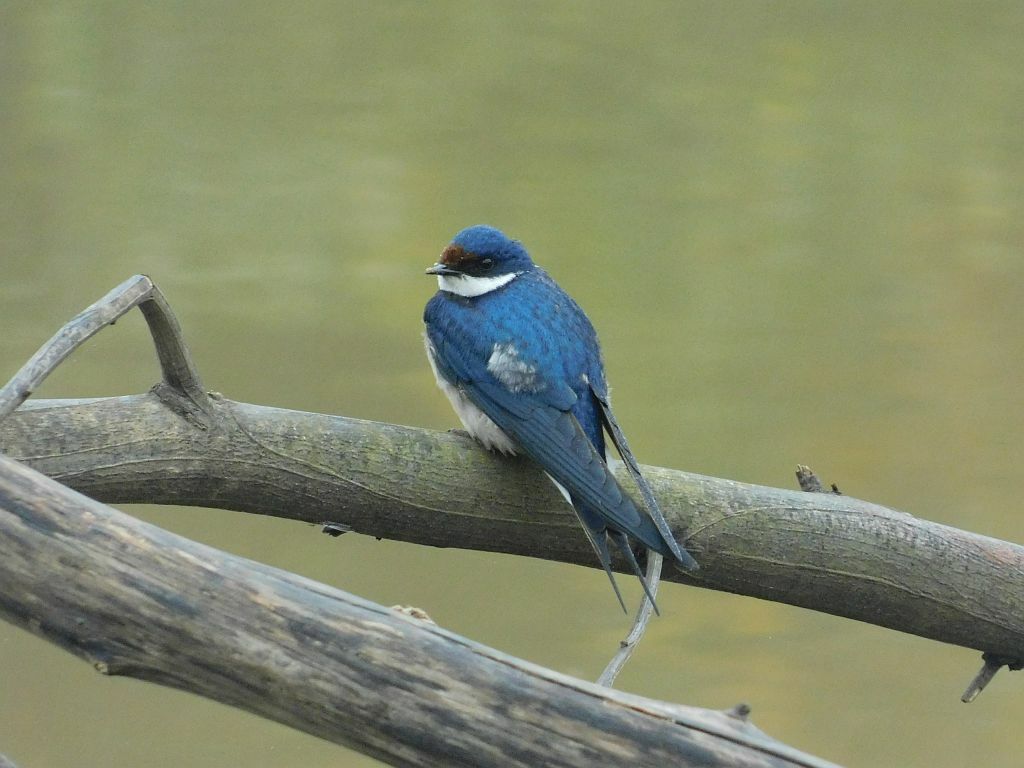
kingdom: Animalia
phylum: Chordata
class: Aves
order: Passeriformes
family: Hirundinidae
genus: Hirundo
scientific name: Hirundo albigularis
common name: White-throated swallow
